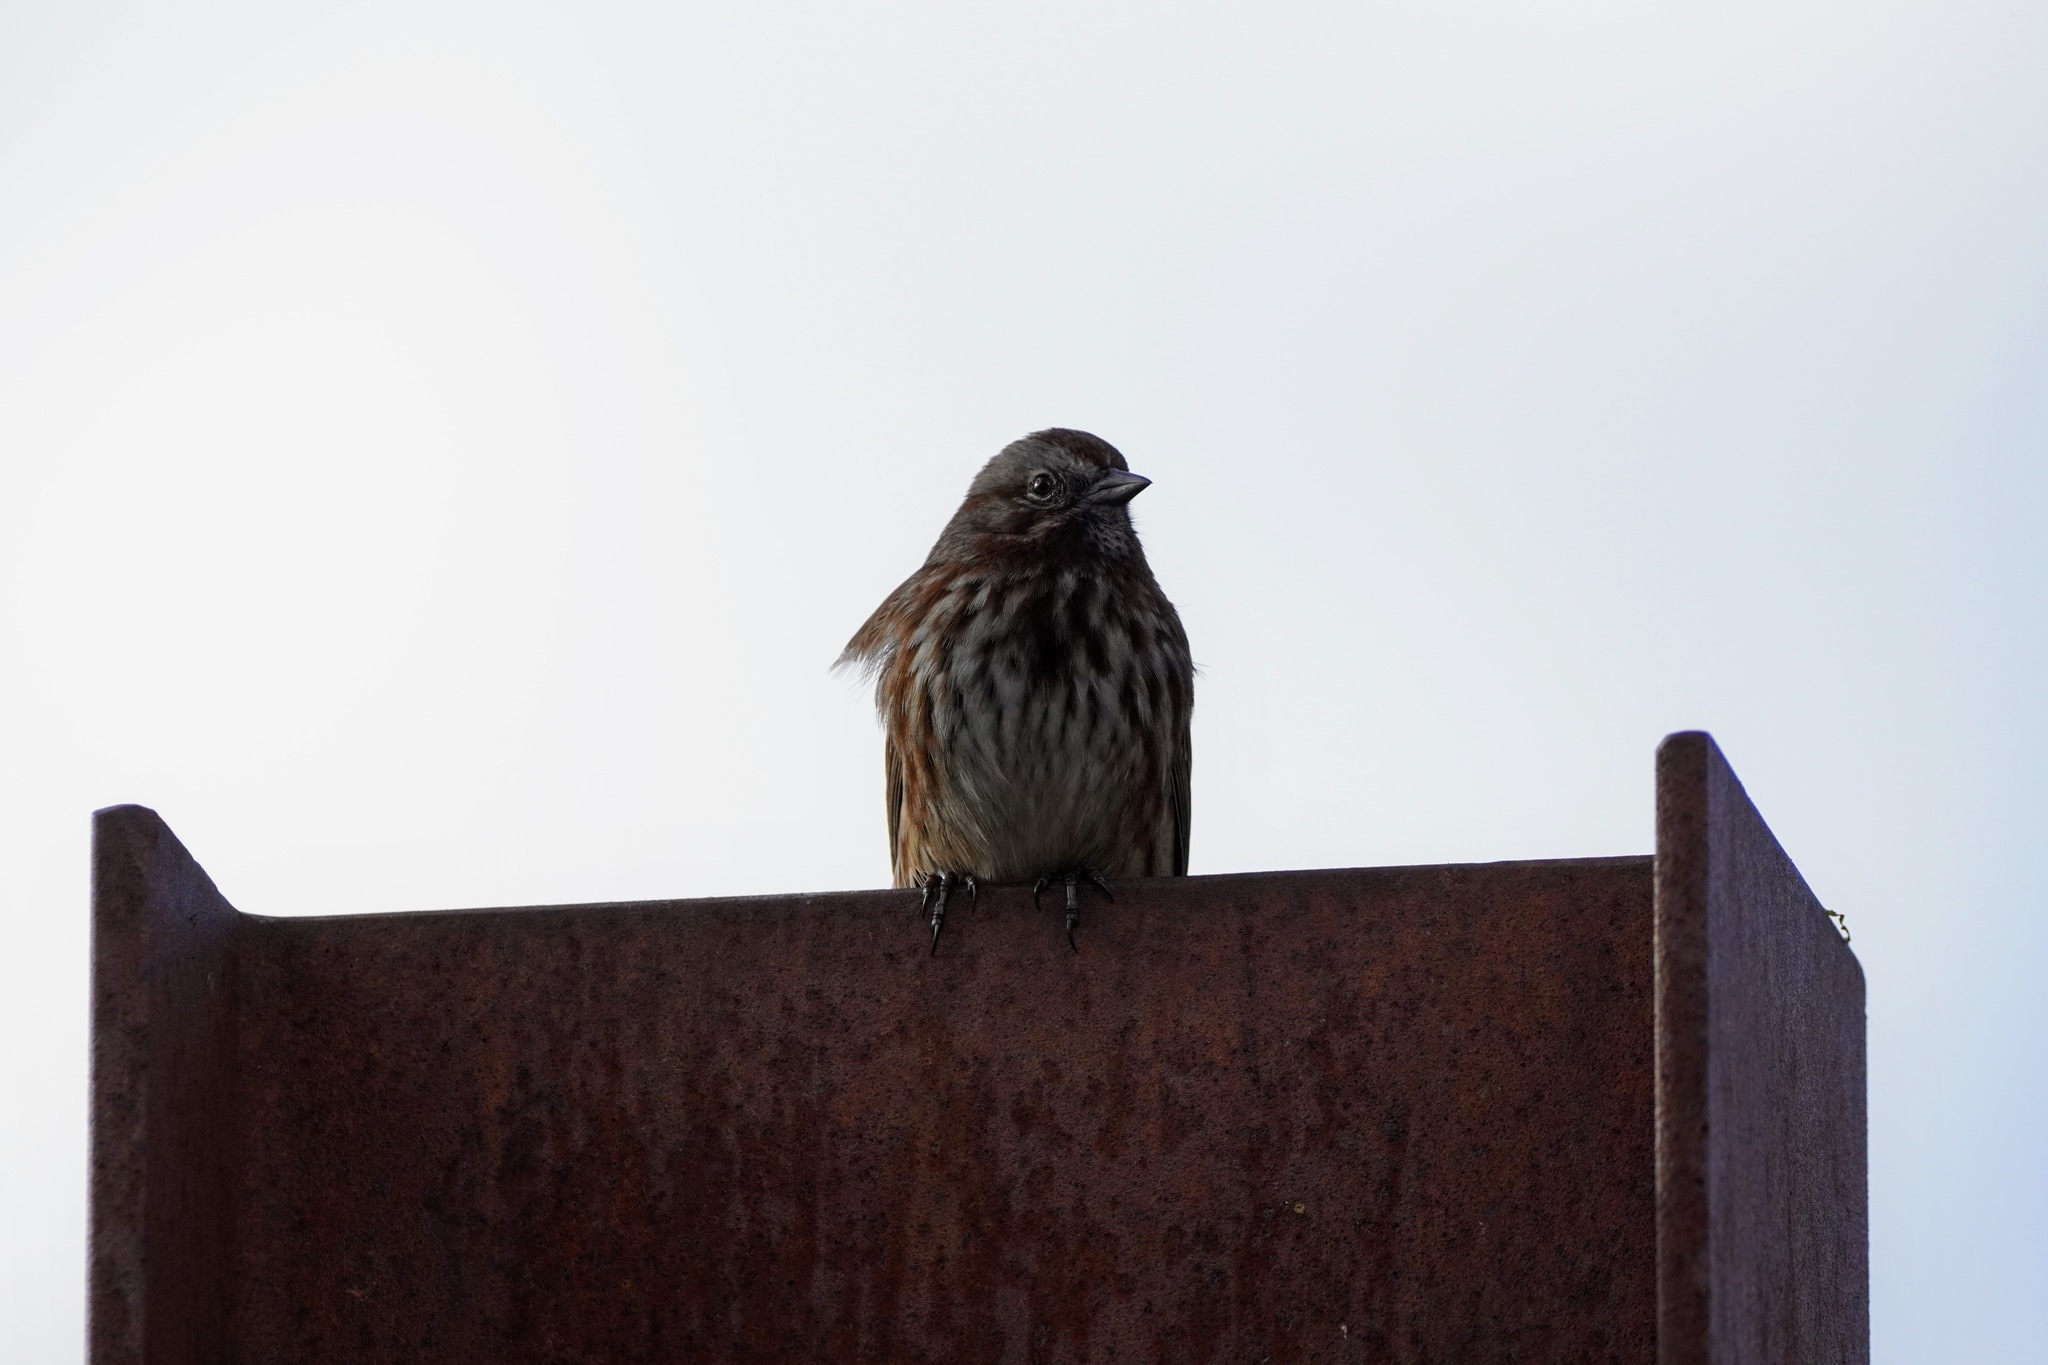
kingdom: Animalia
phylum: Chordata
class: Aves
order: Passeriformes
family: Passerellidae
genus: Melospiza
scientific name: Melospiza melodia
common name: Song sparrow
